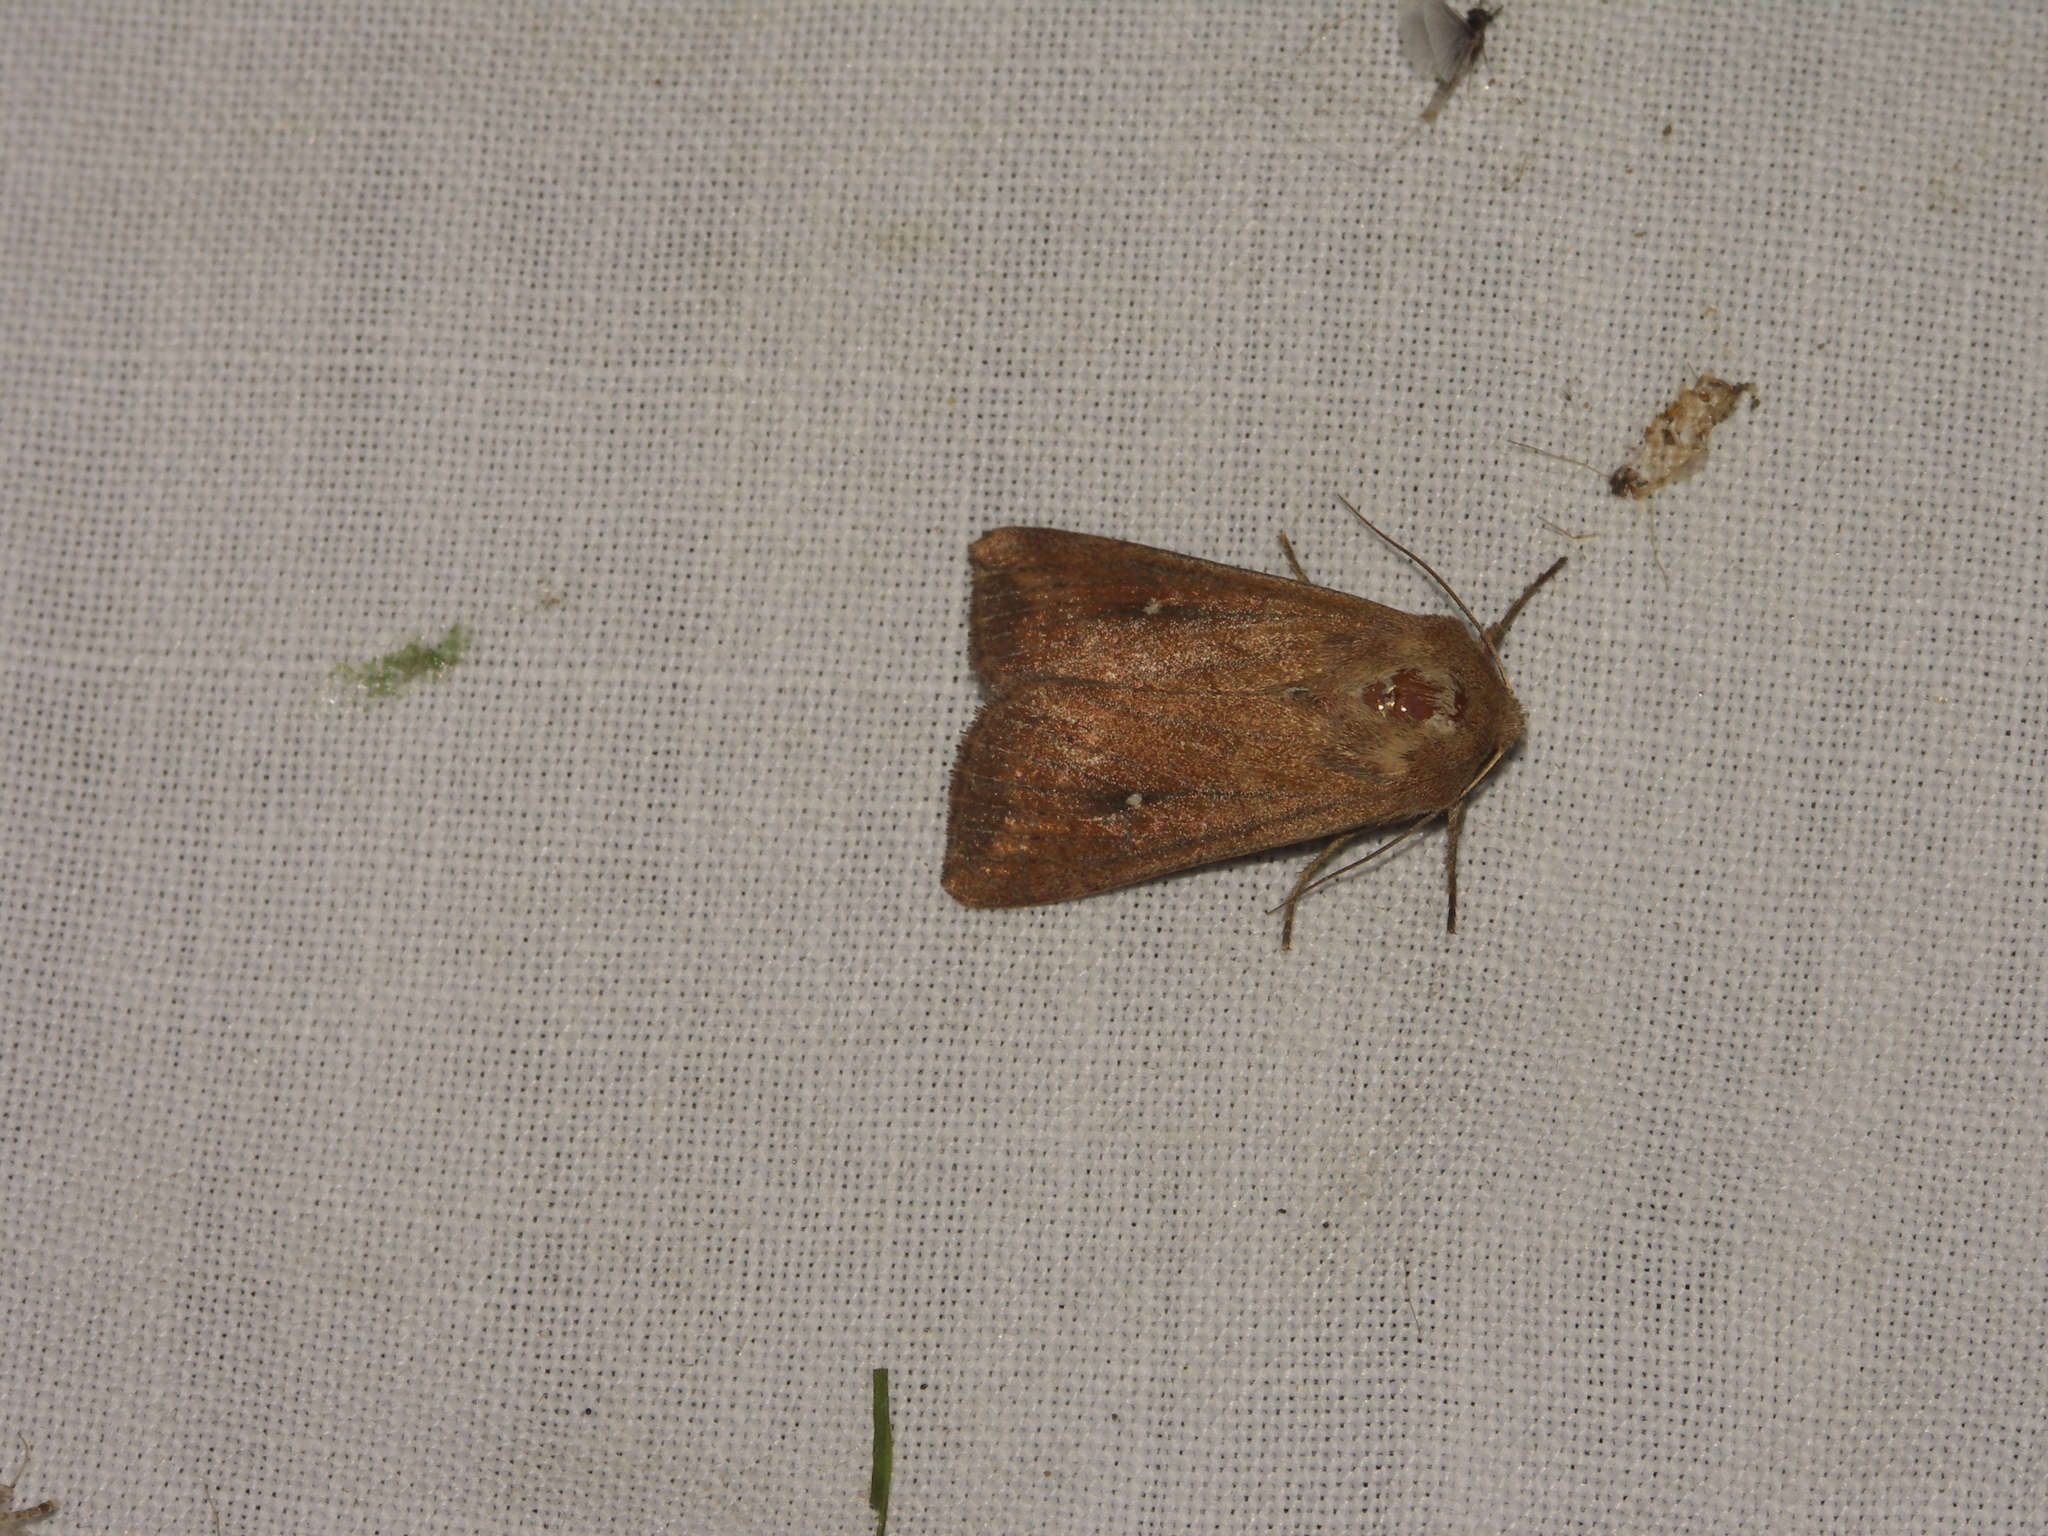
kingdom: Animalia
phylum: Arthropoda
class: Insecta
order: Lepidoptera
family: Noctuidae
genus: Mythimna
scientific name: Mythimna albipuncta
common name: White-point
